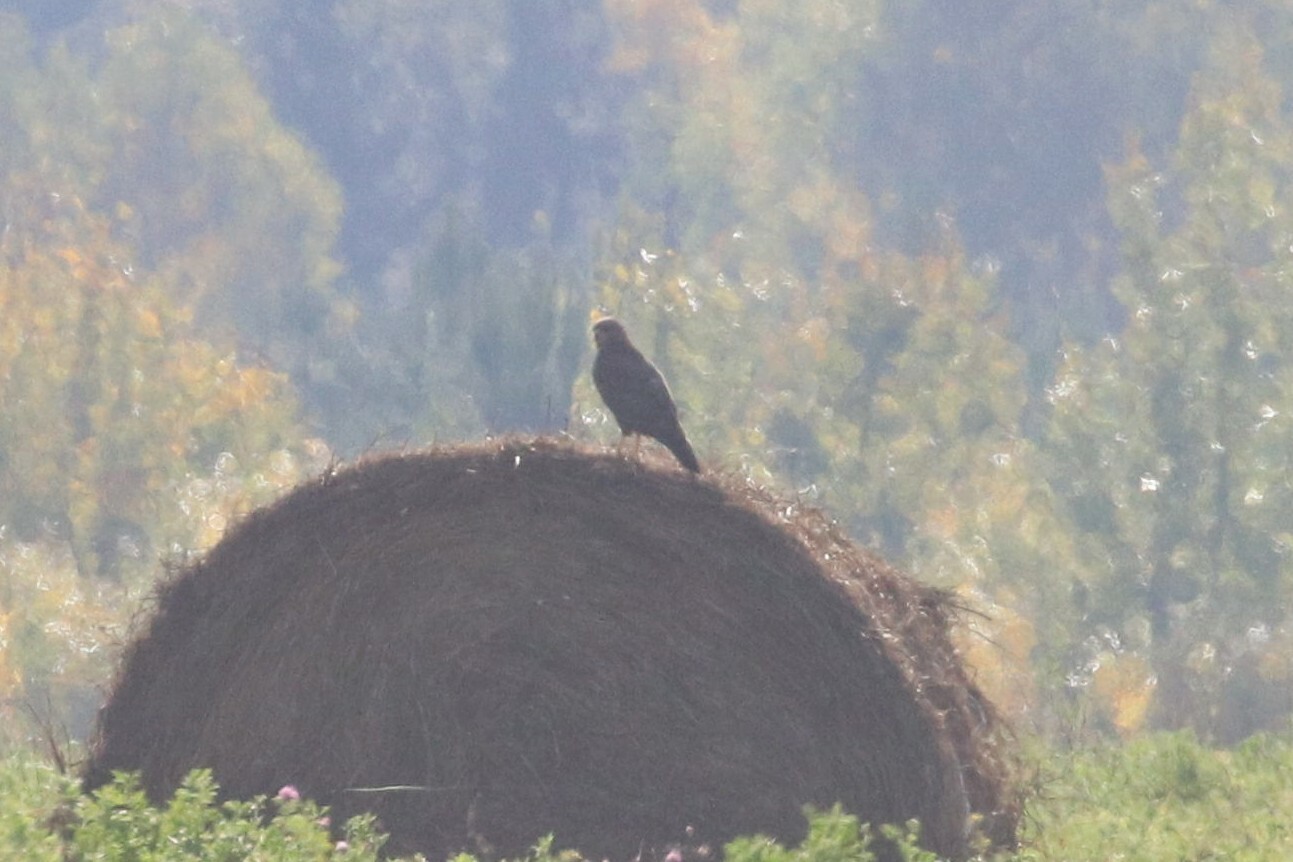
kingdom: Animalia
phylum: Chordata
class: Aves
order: Accipitriformes
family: Accipitridae
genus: Buteo
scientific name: Buteo buteo
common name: Common buzzard
